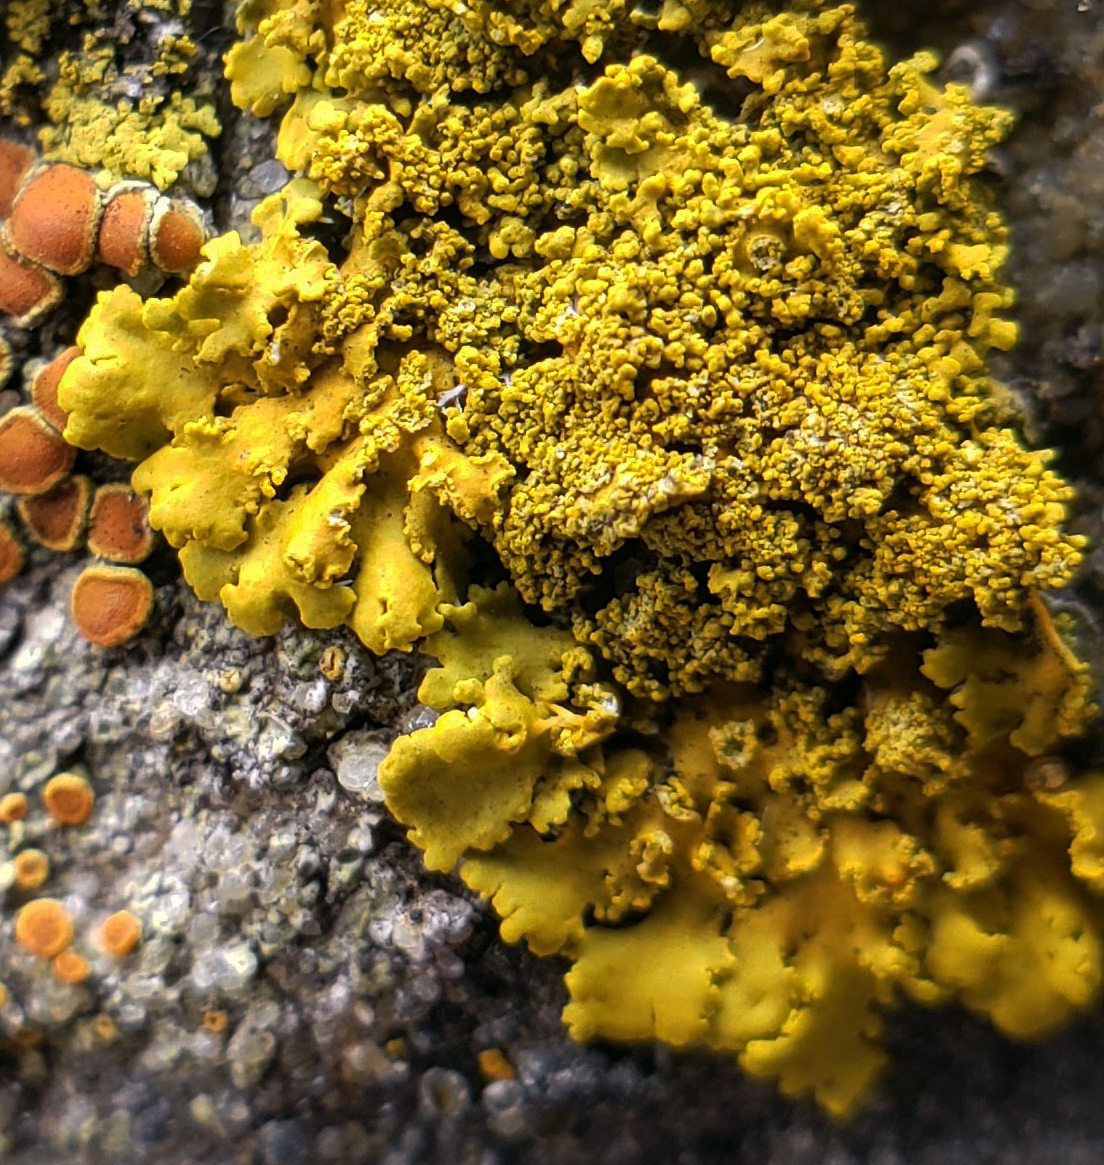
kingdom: Fungi
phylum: Ascomycota
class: Lecanoromycetes
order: Teloschistales
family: Teloschistaceae
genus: Rusavskia
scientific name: Rusavskia sorediata
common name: Sugared sunburst lichen
